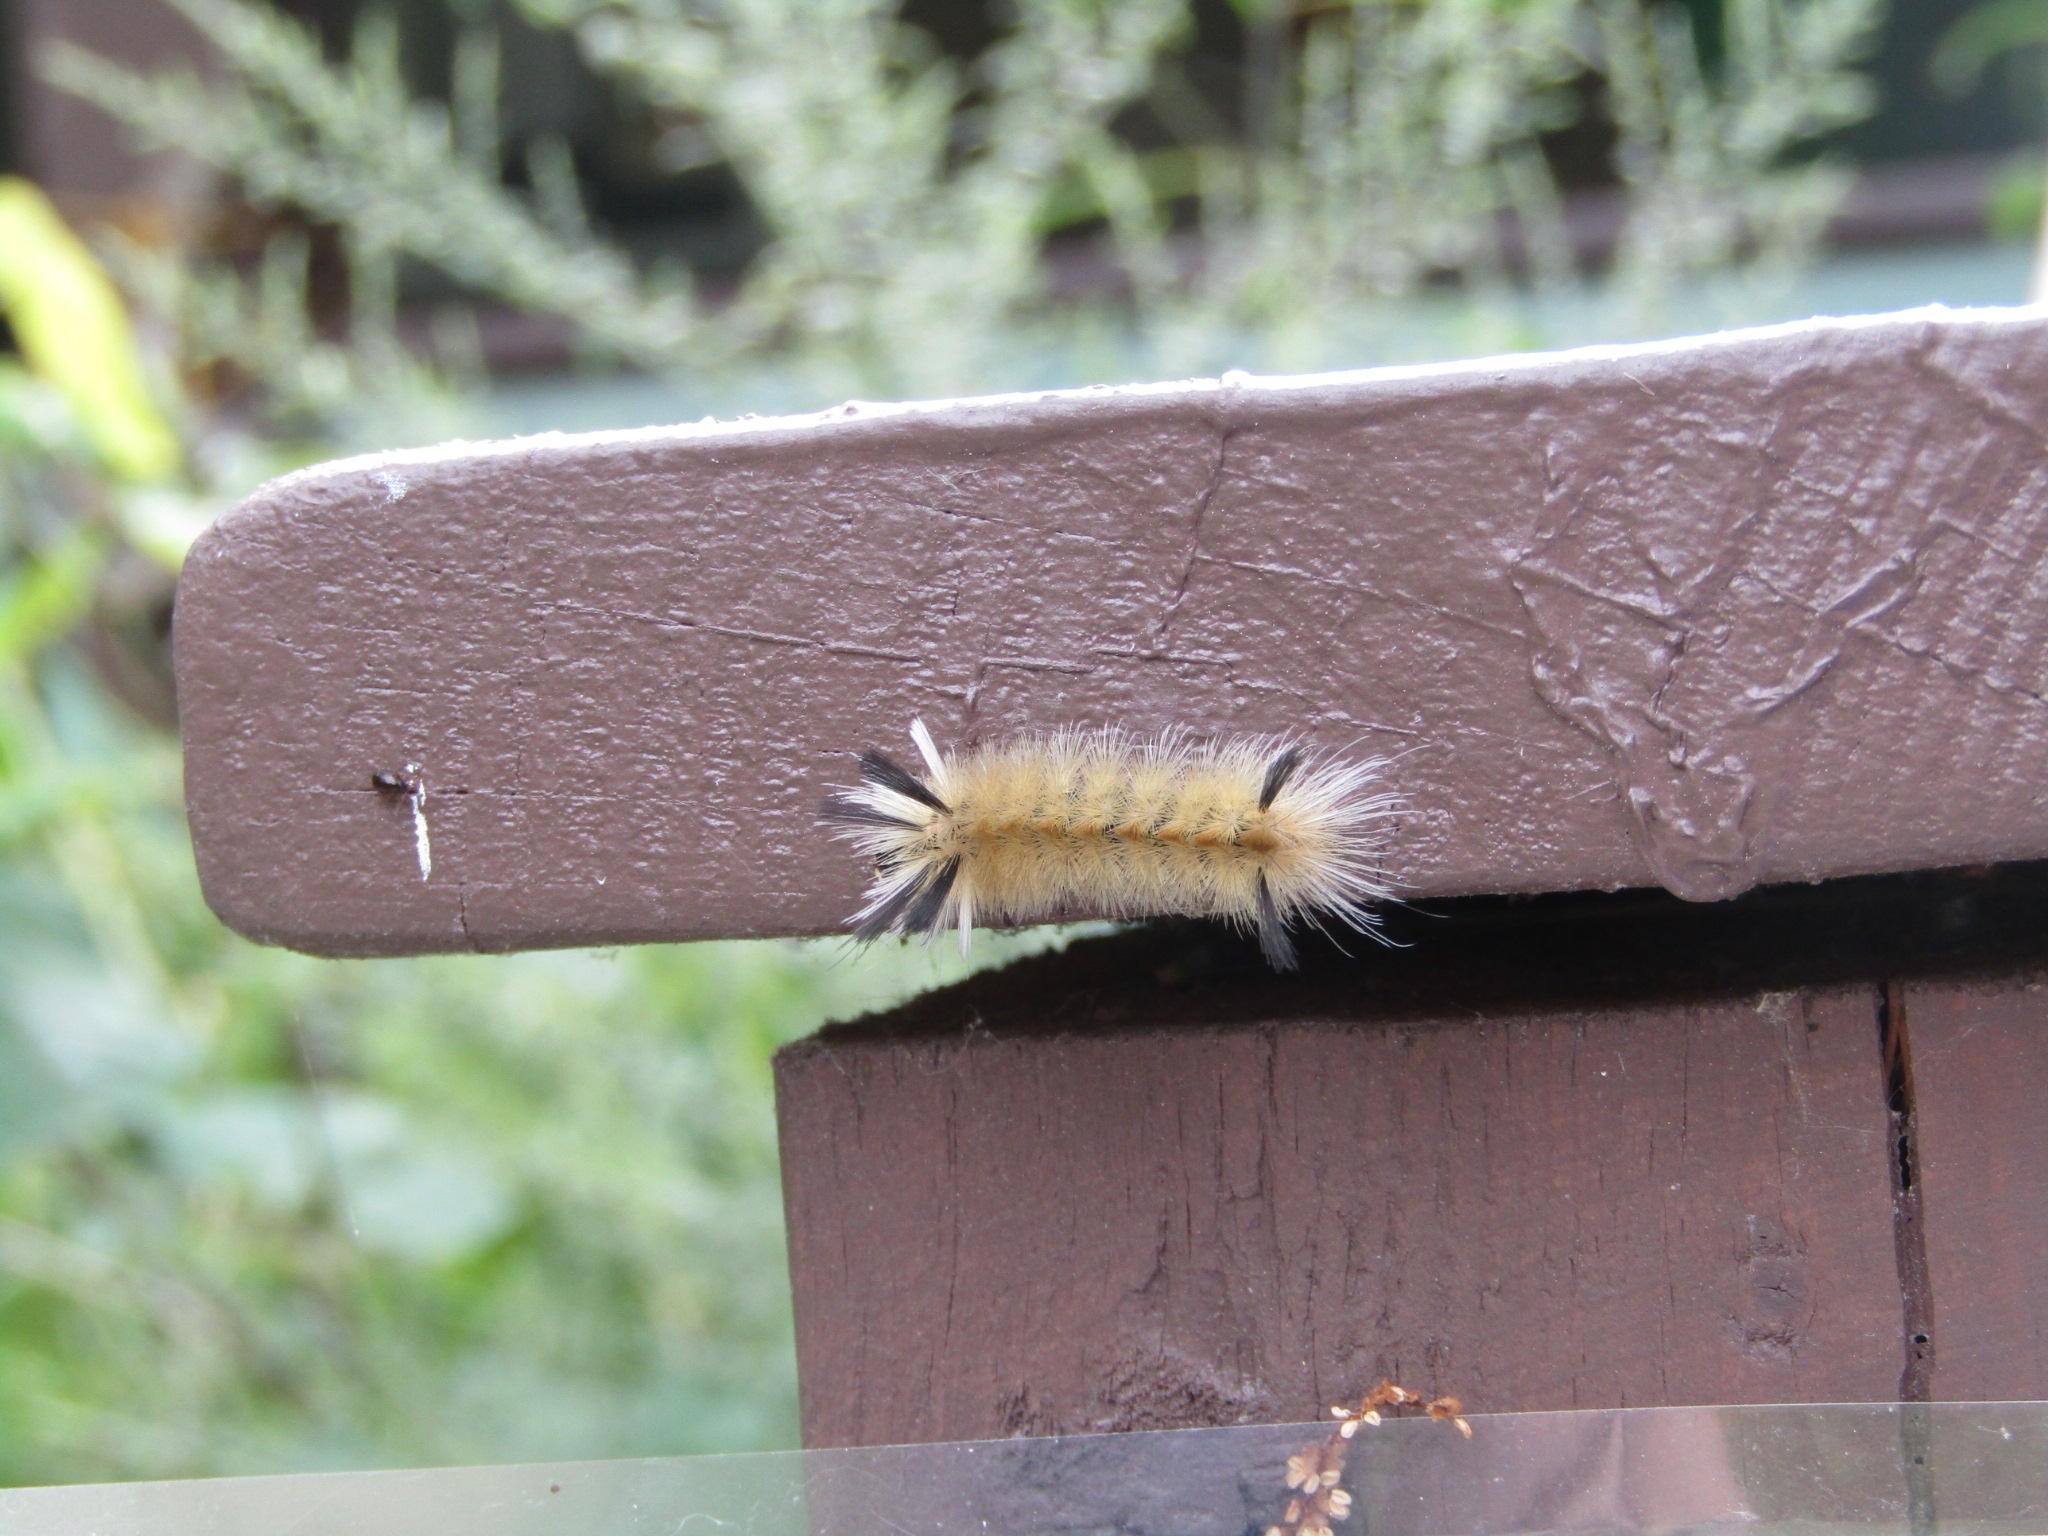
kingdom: Animalia
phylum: Arthropoda
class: Insecta
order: Lepidoptera
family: Erebidae
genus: Halysidota
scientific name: Halysidota tessellaris
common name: Banded tussock moth
